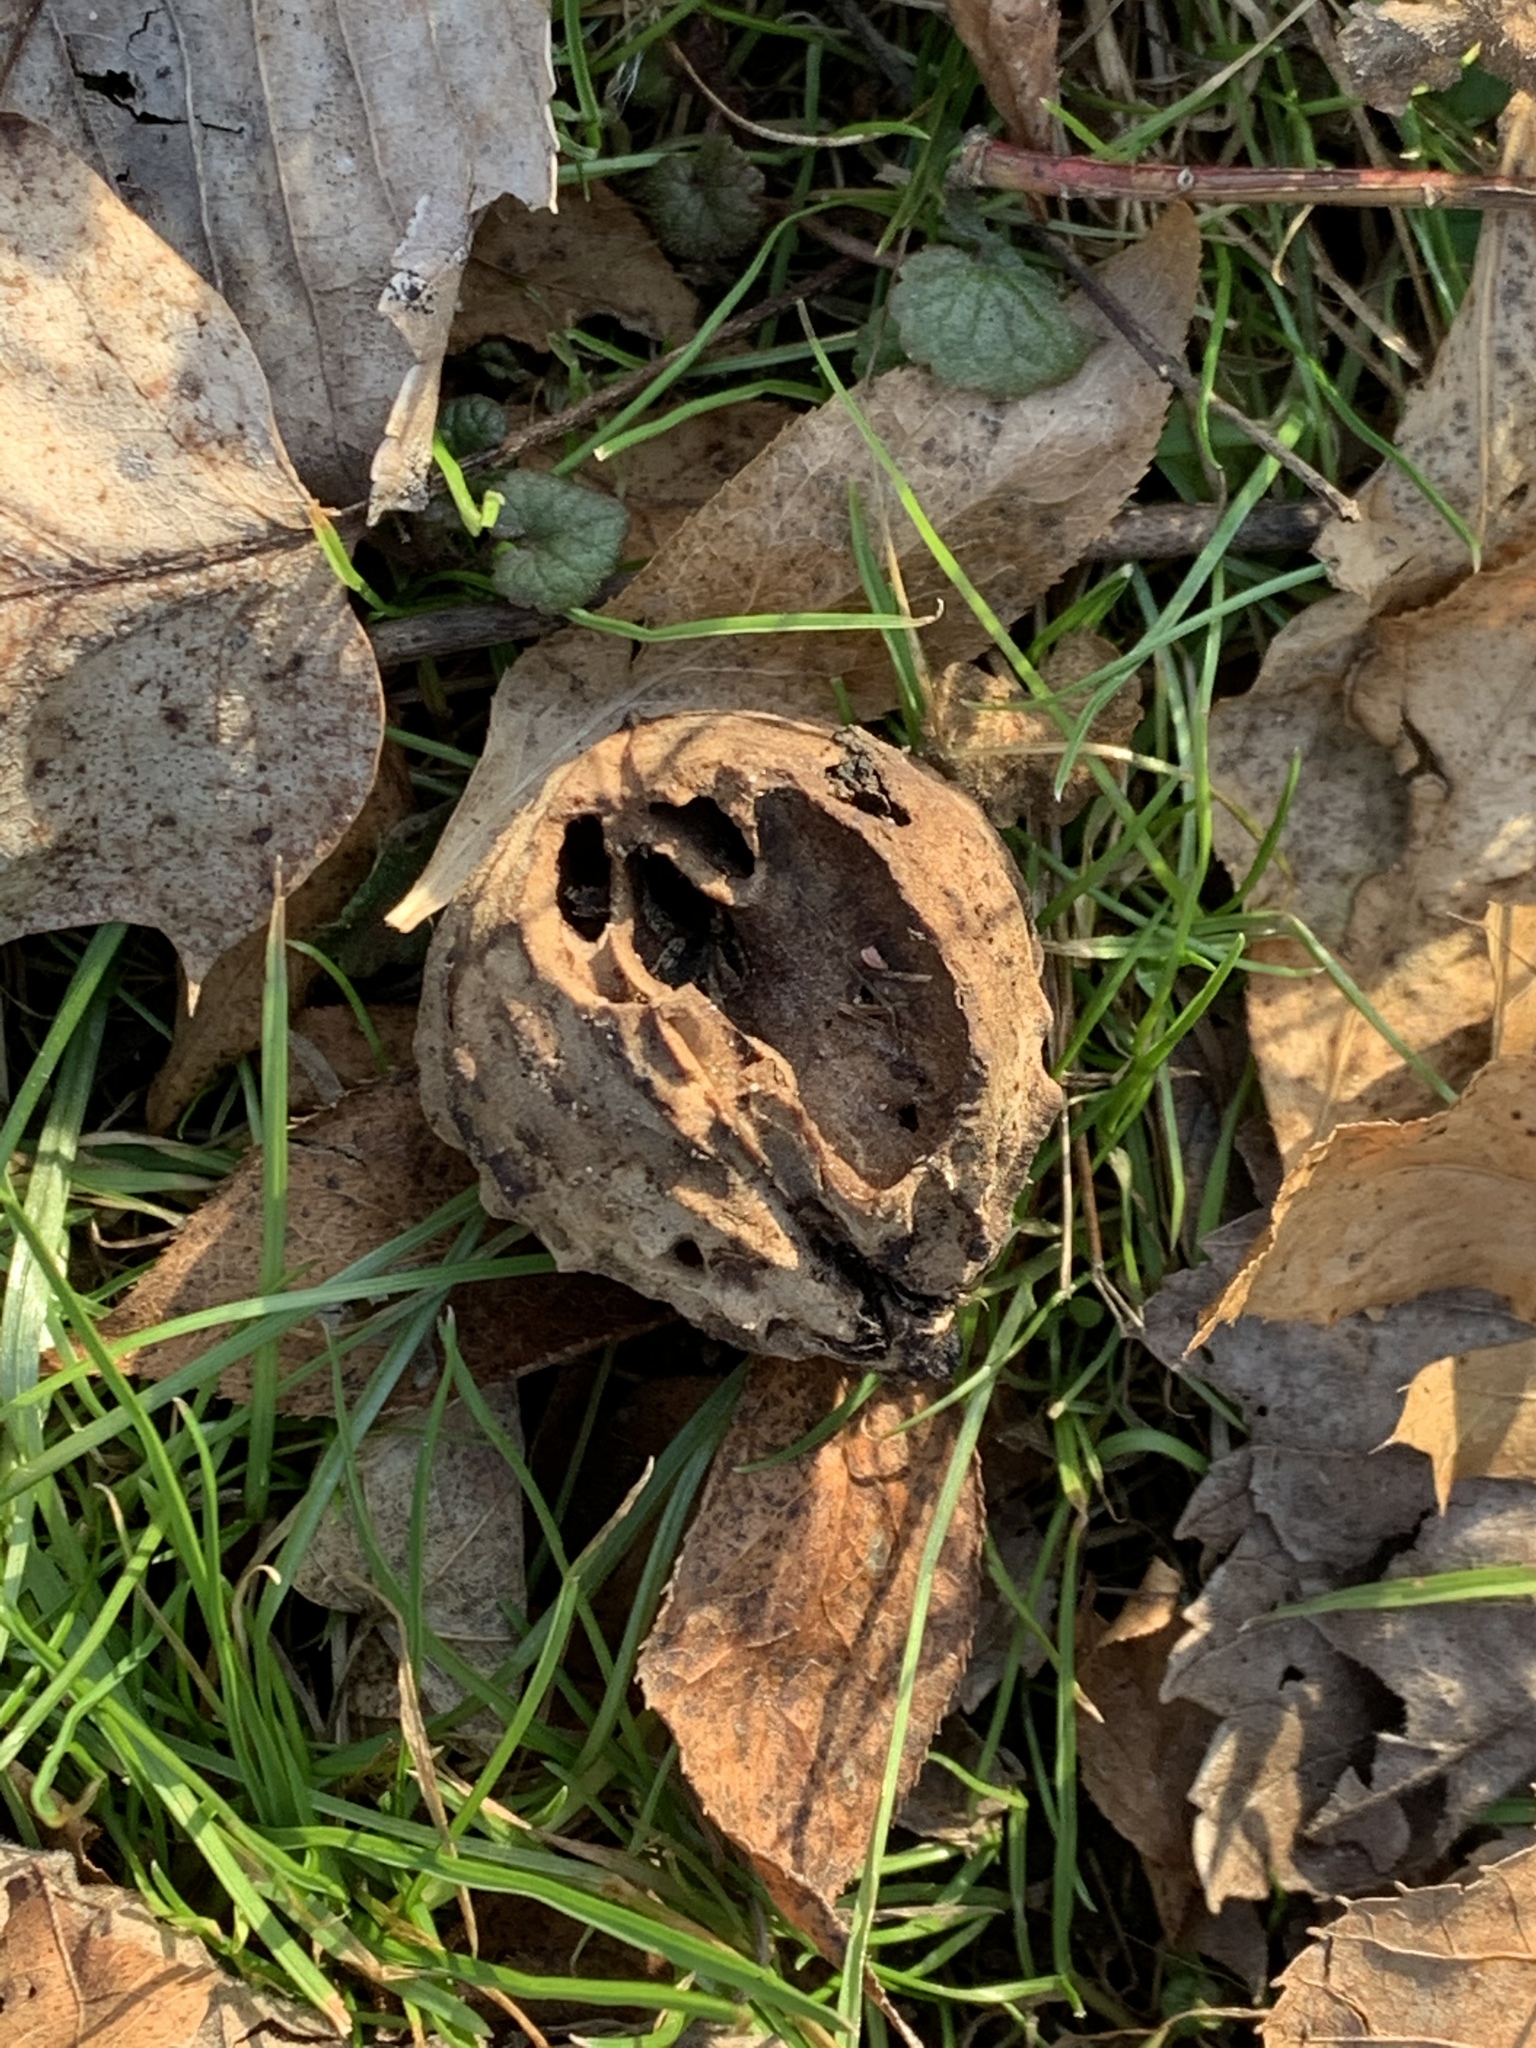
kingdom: Plantae
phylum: Tracheophyta
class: Magnoliopsida
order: Fagales
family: Juglandaceae
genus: Juglans
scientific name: Juglans nigra
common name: Black walnut
